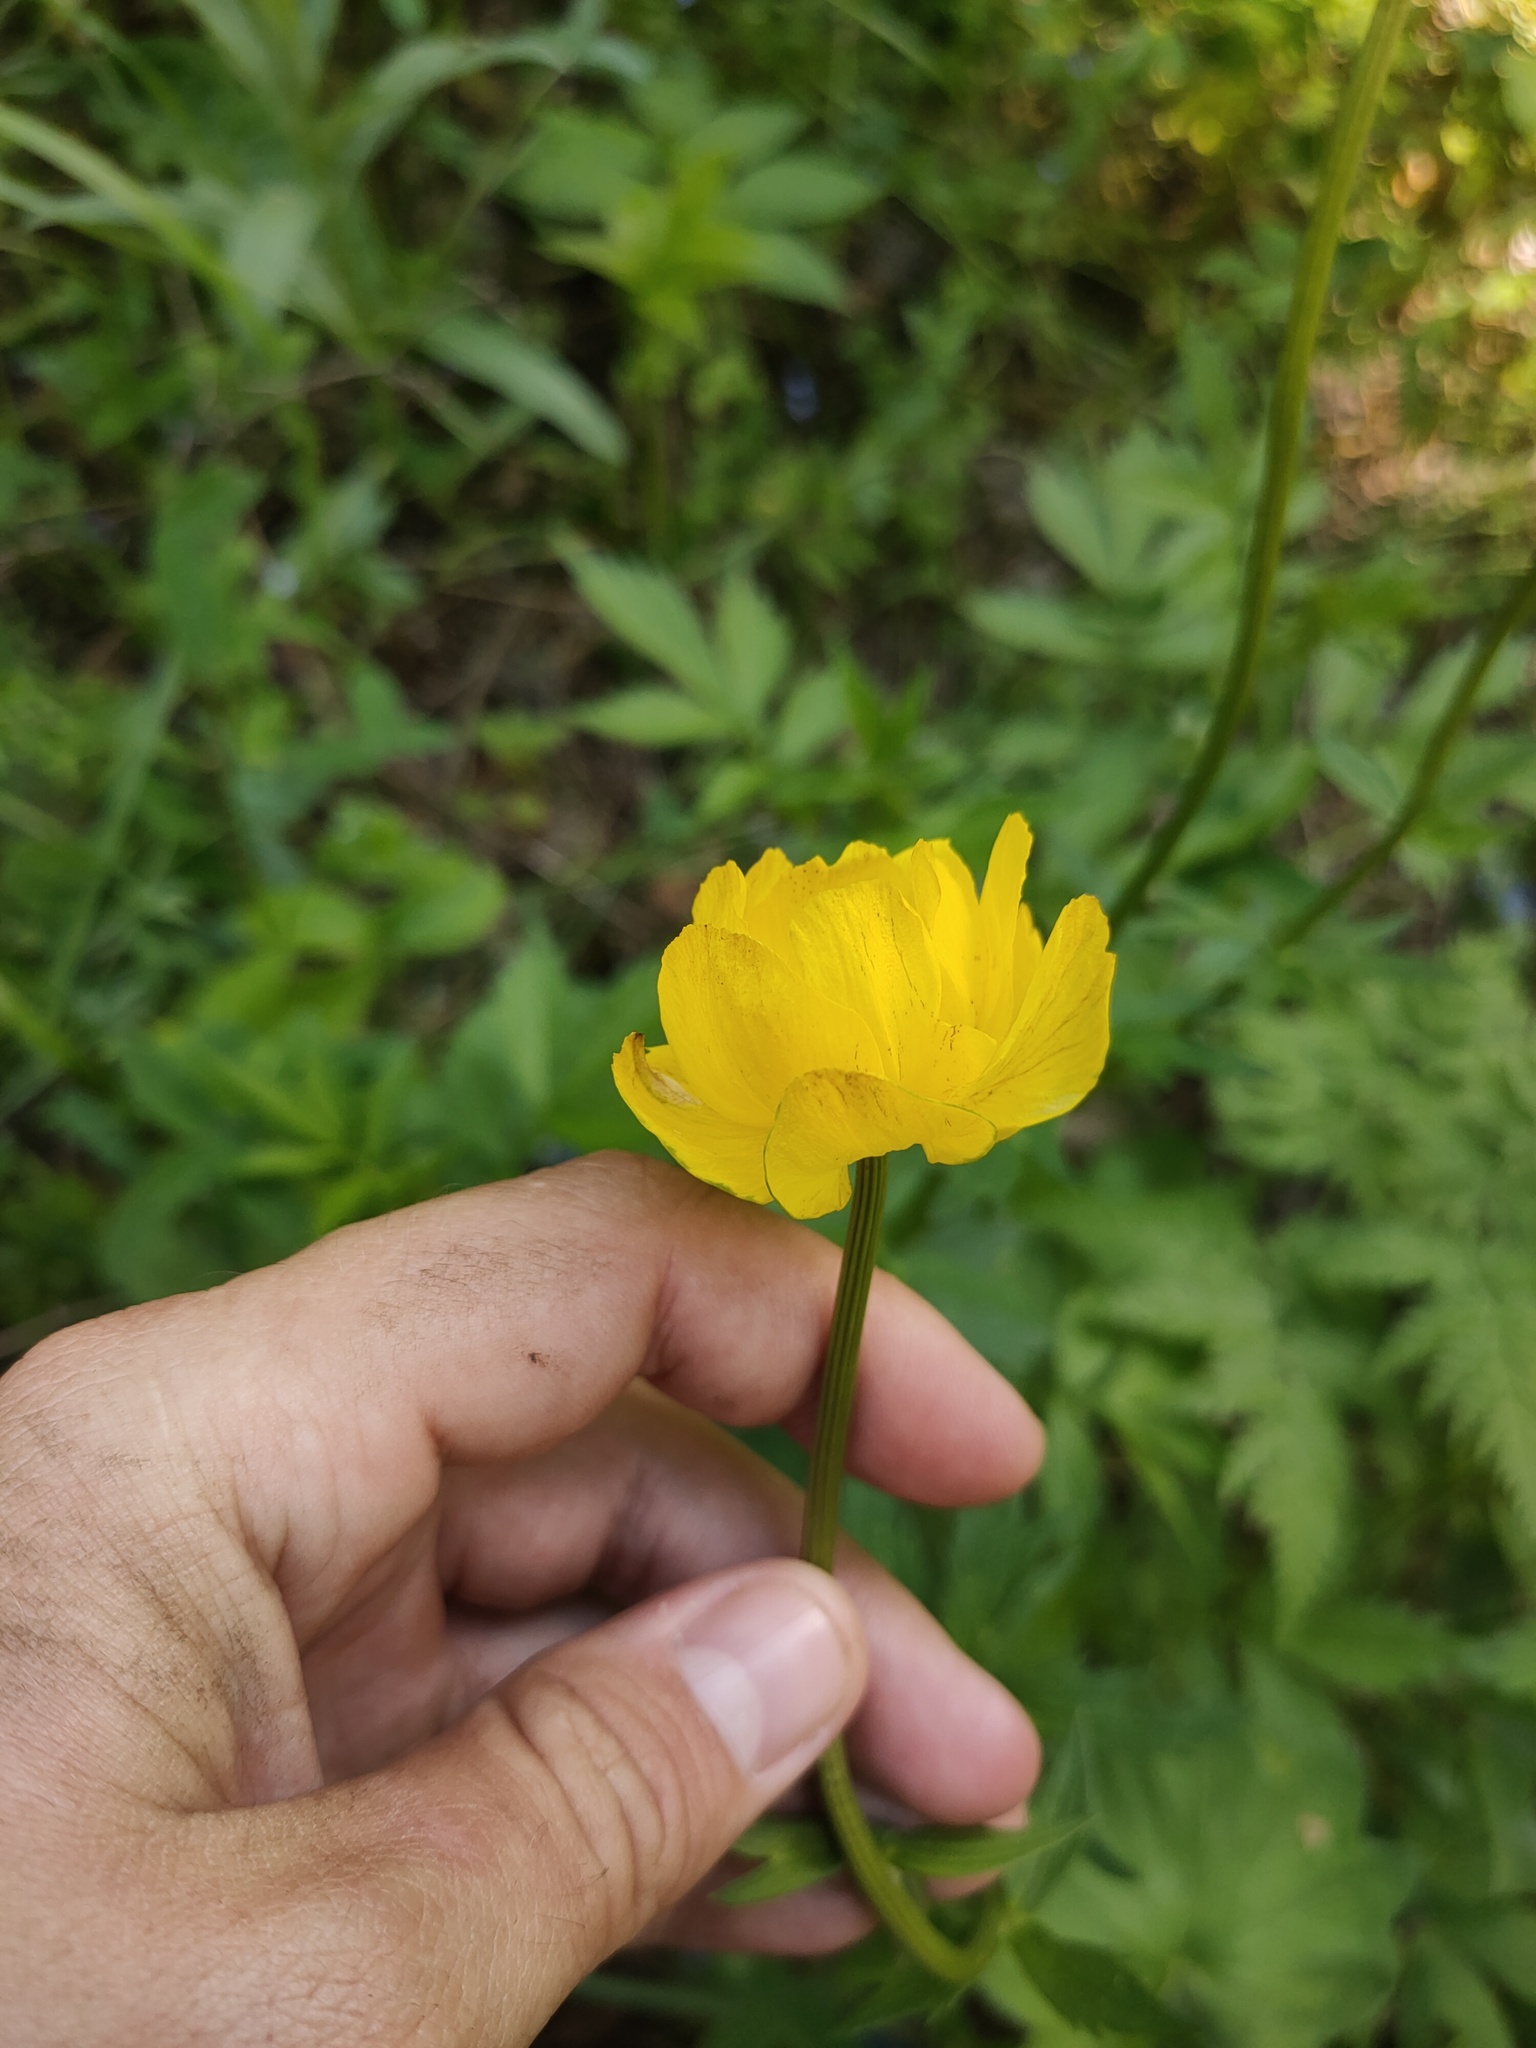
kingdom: Plantae
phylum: Tracheophyta
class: Magnoliopsida
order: Ranunculales
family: Ranunculaceae
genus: Trollius
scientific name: Trollius europaeus
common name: European globeflower
